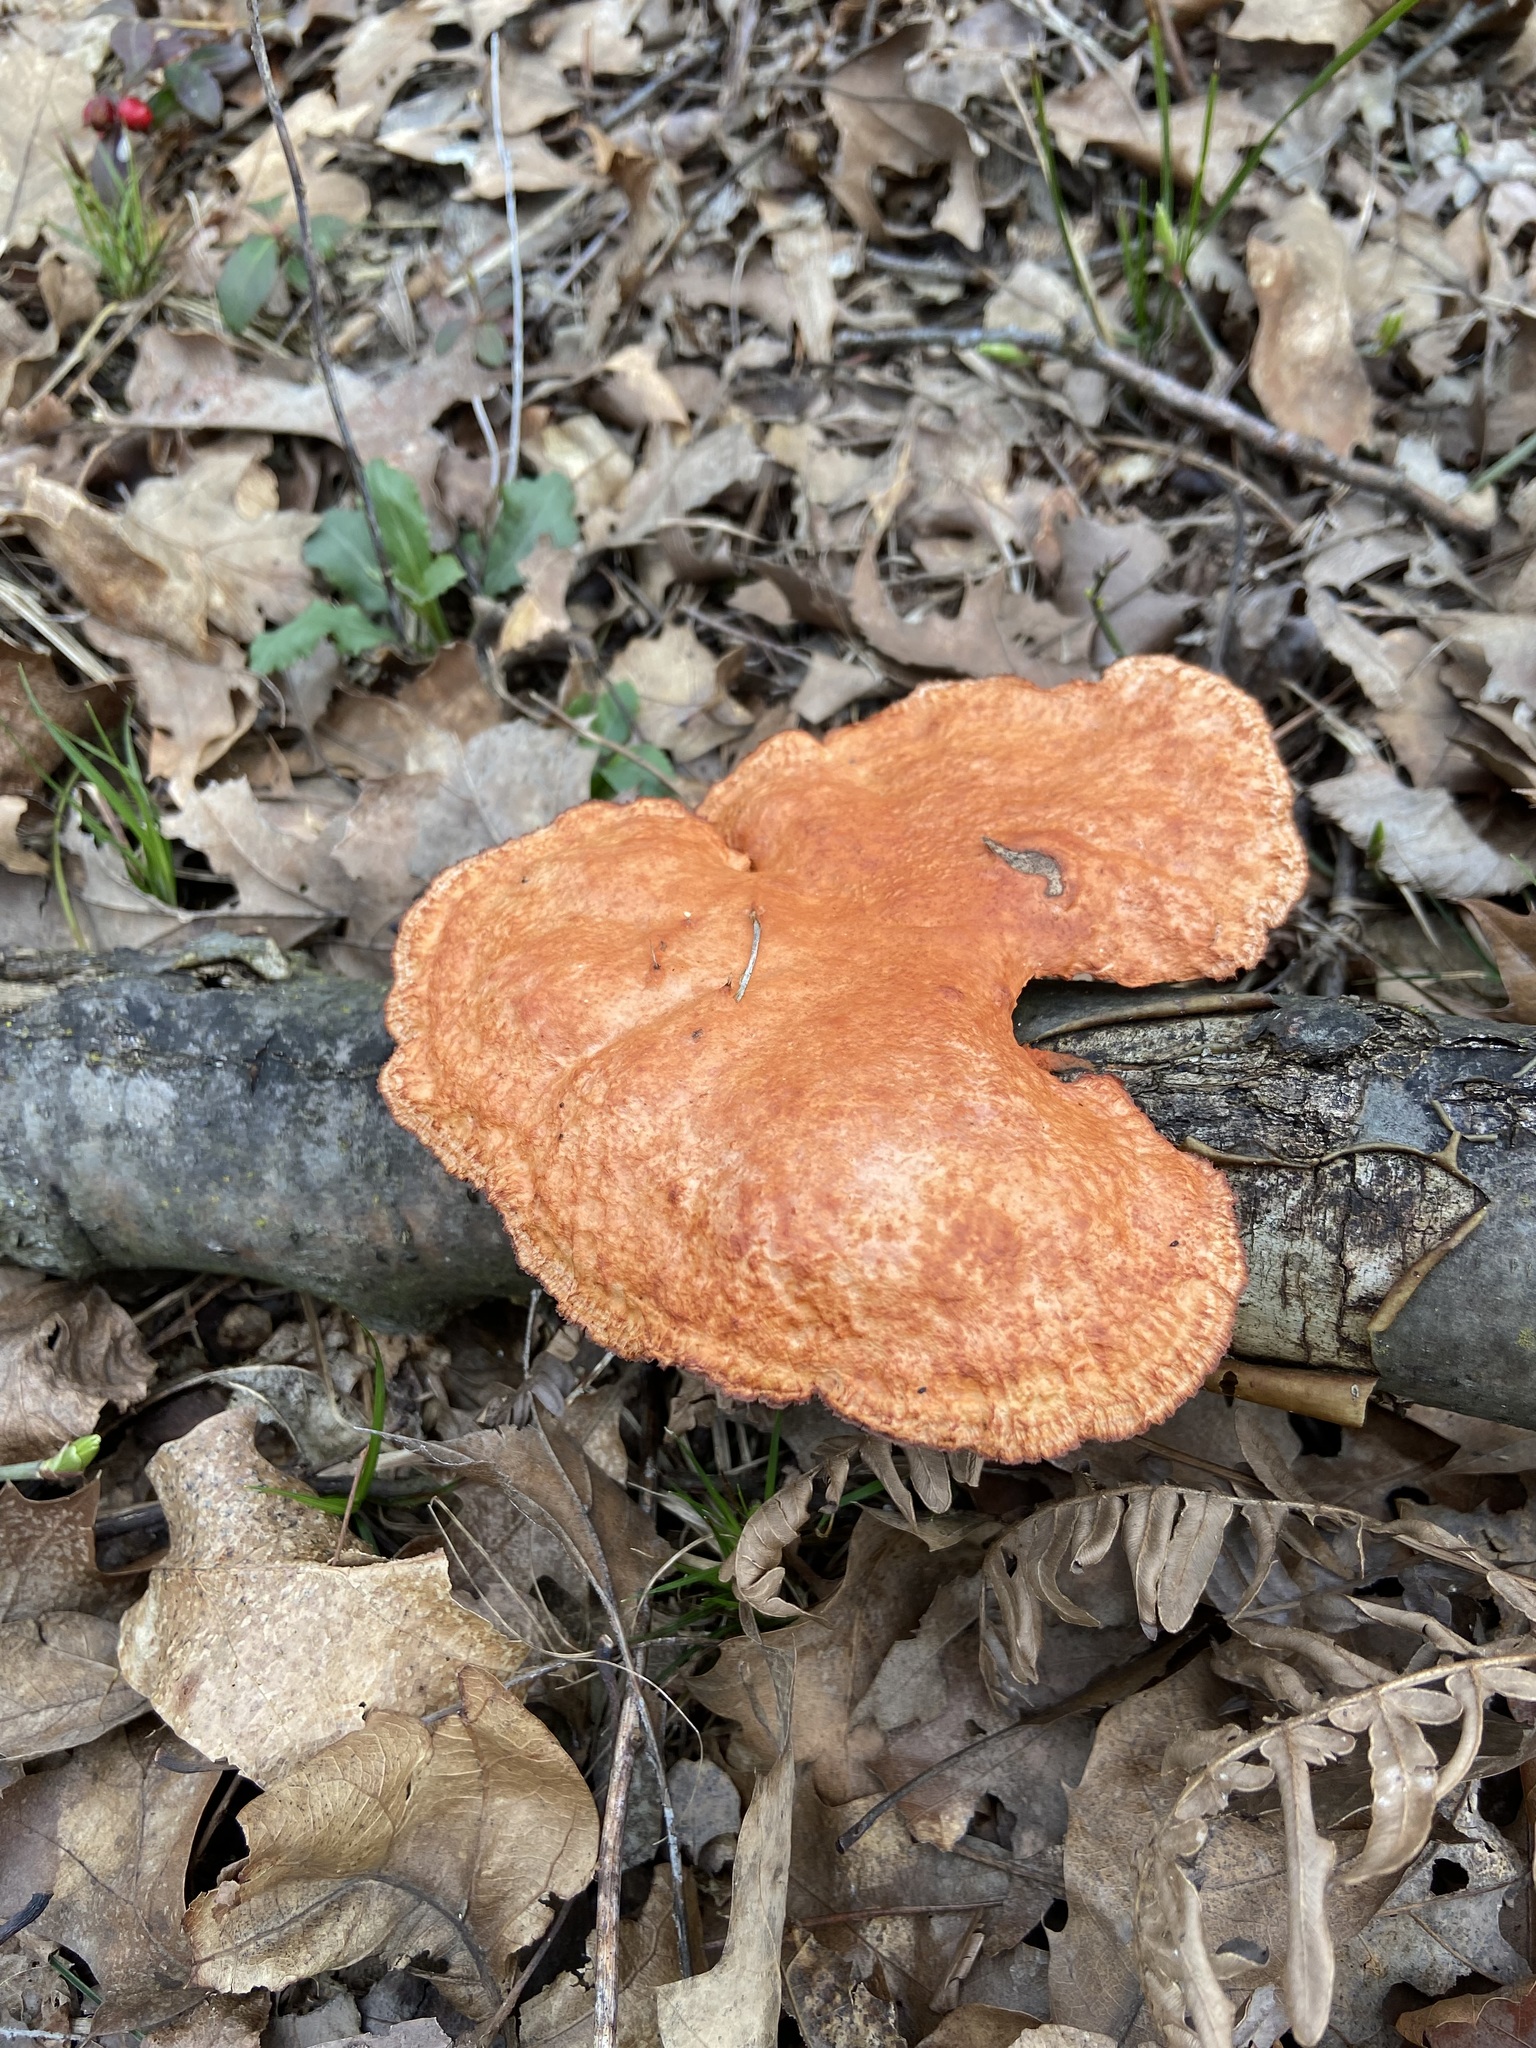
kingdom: Fungi
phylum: Basidiomycota
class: Agaricomycetes
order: Polyporales
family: Polyporaceae
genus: Trametes
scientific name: Trametes cinnabarina
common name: Northern cinnabar polypore
